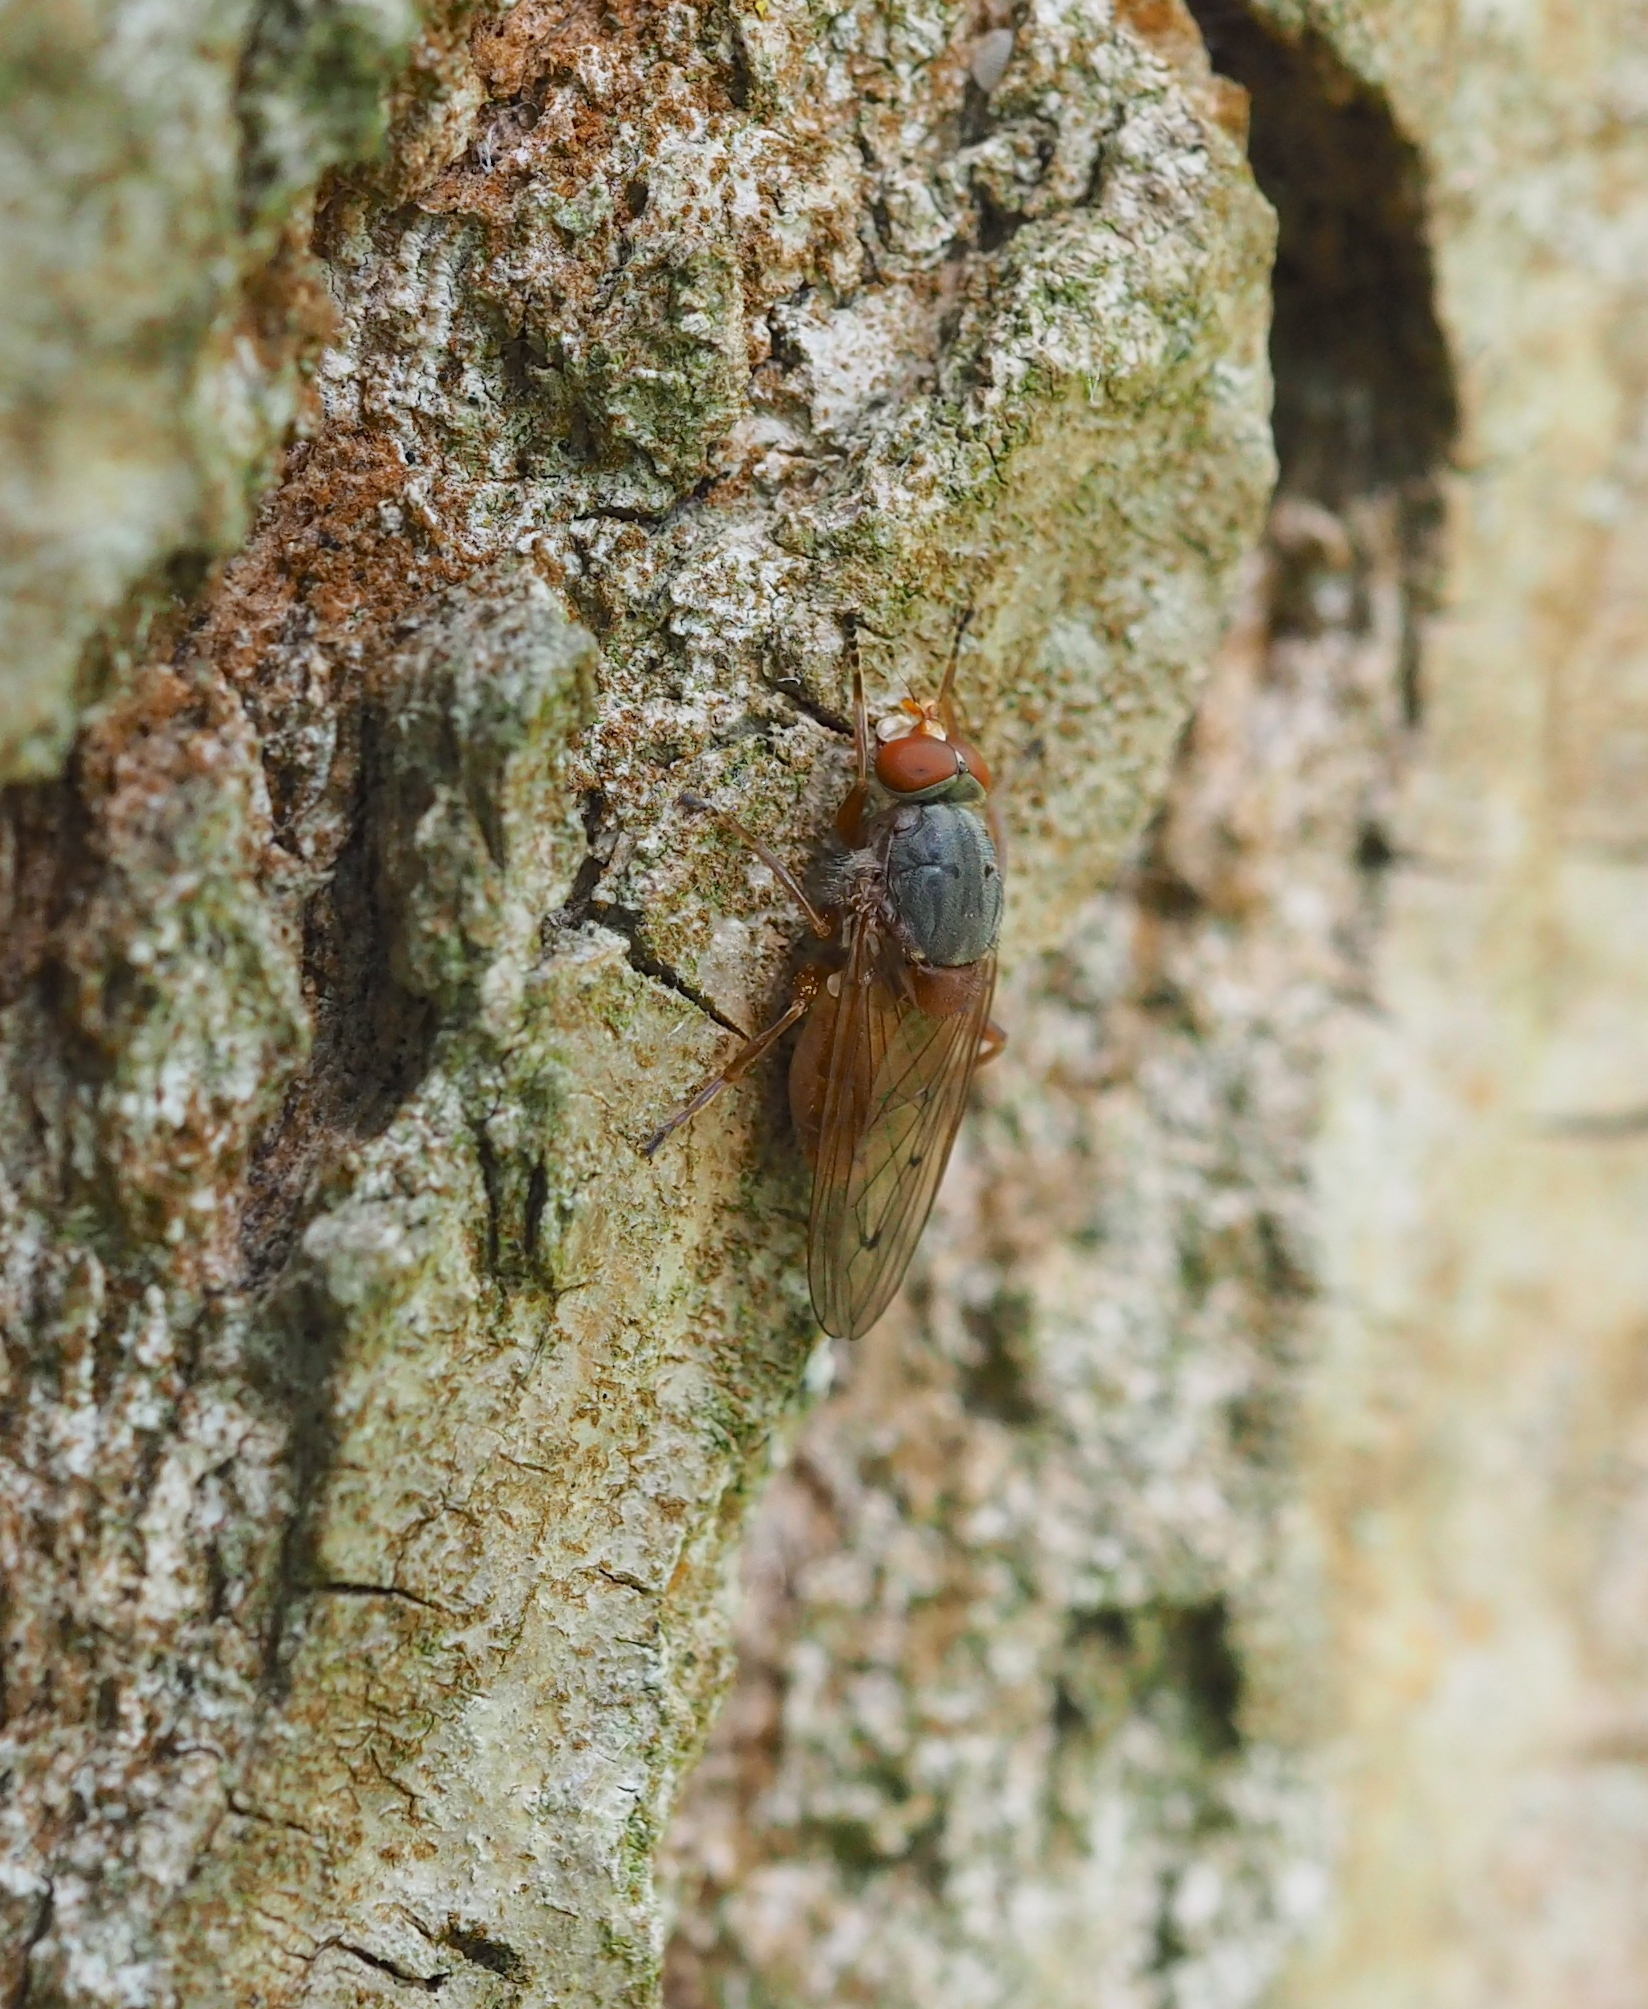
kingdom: Animalia
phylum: Arthropoda
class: Insecta
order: Diptera
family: Syrphidae
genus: Brachyopa
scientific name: Brachyopa maculipennis
